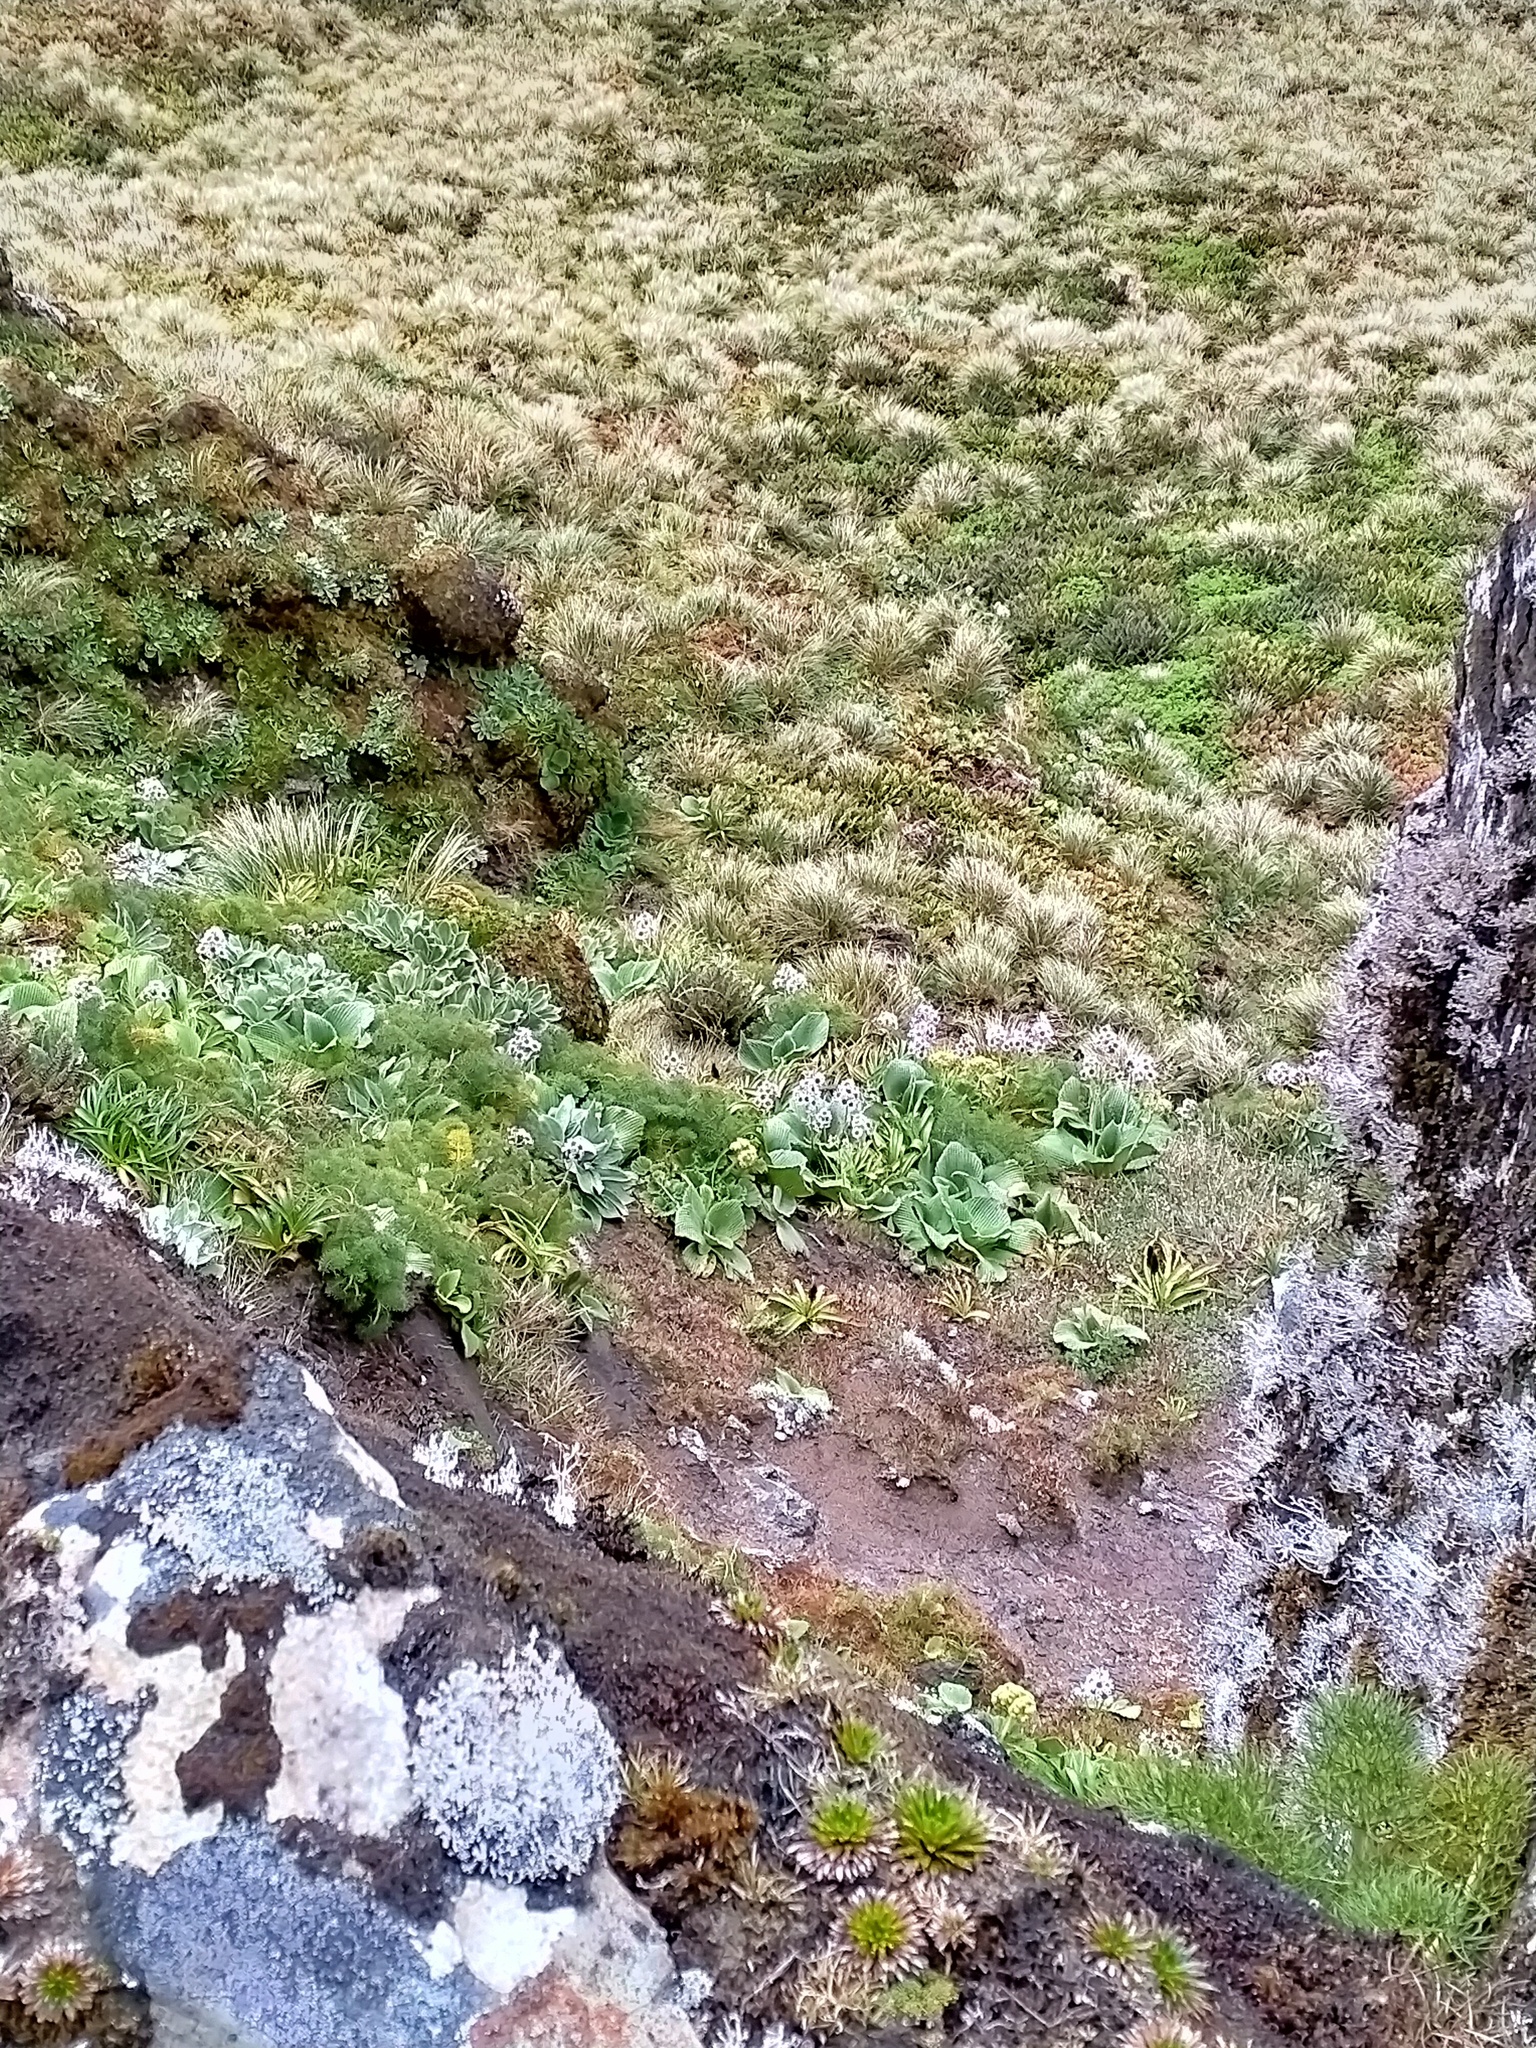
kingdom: Plantae
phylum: Tracheophyta
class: Magnoliopsida
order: Asterales
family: Asteraceae
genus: Pleurophyllum
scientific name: Pleurophyllum speciosum
